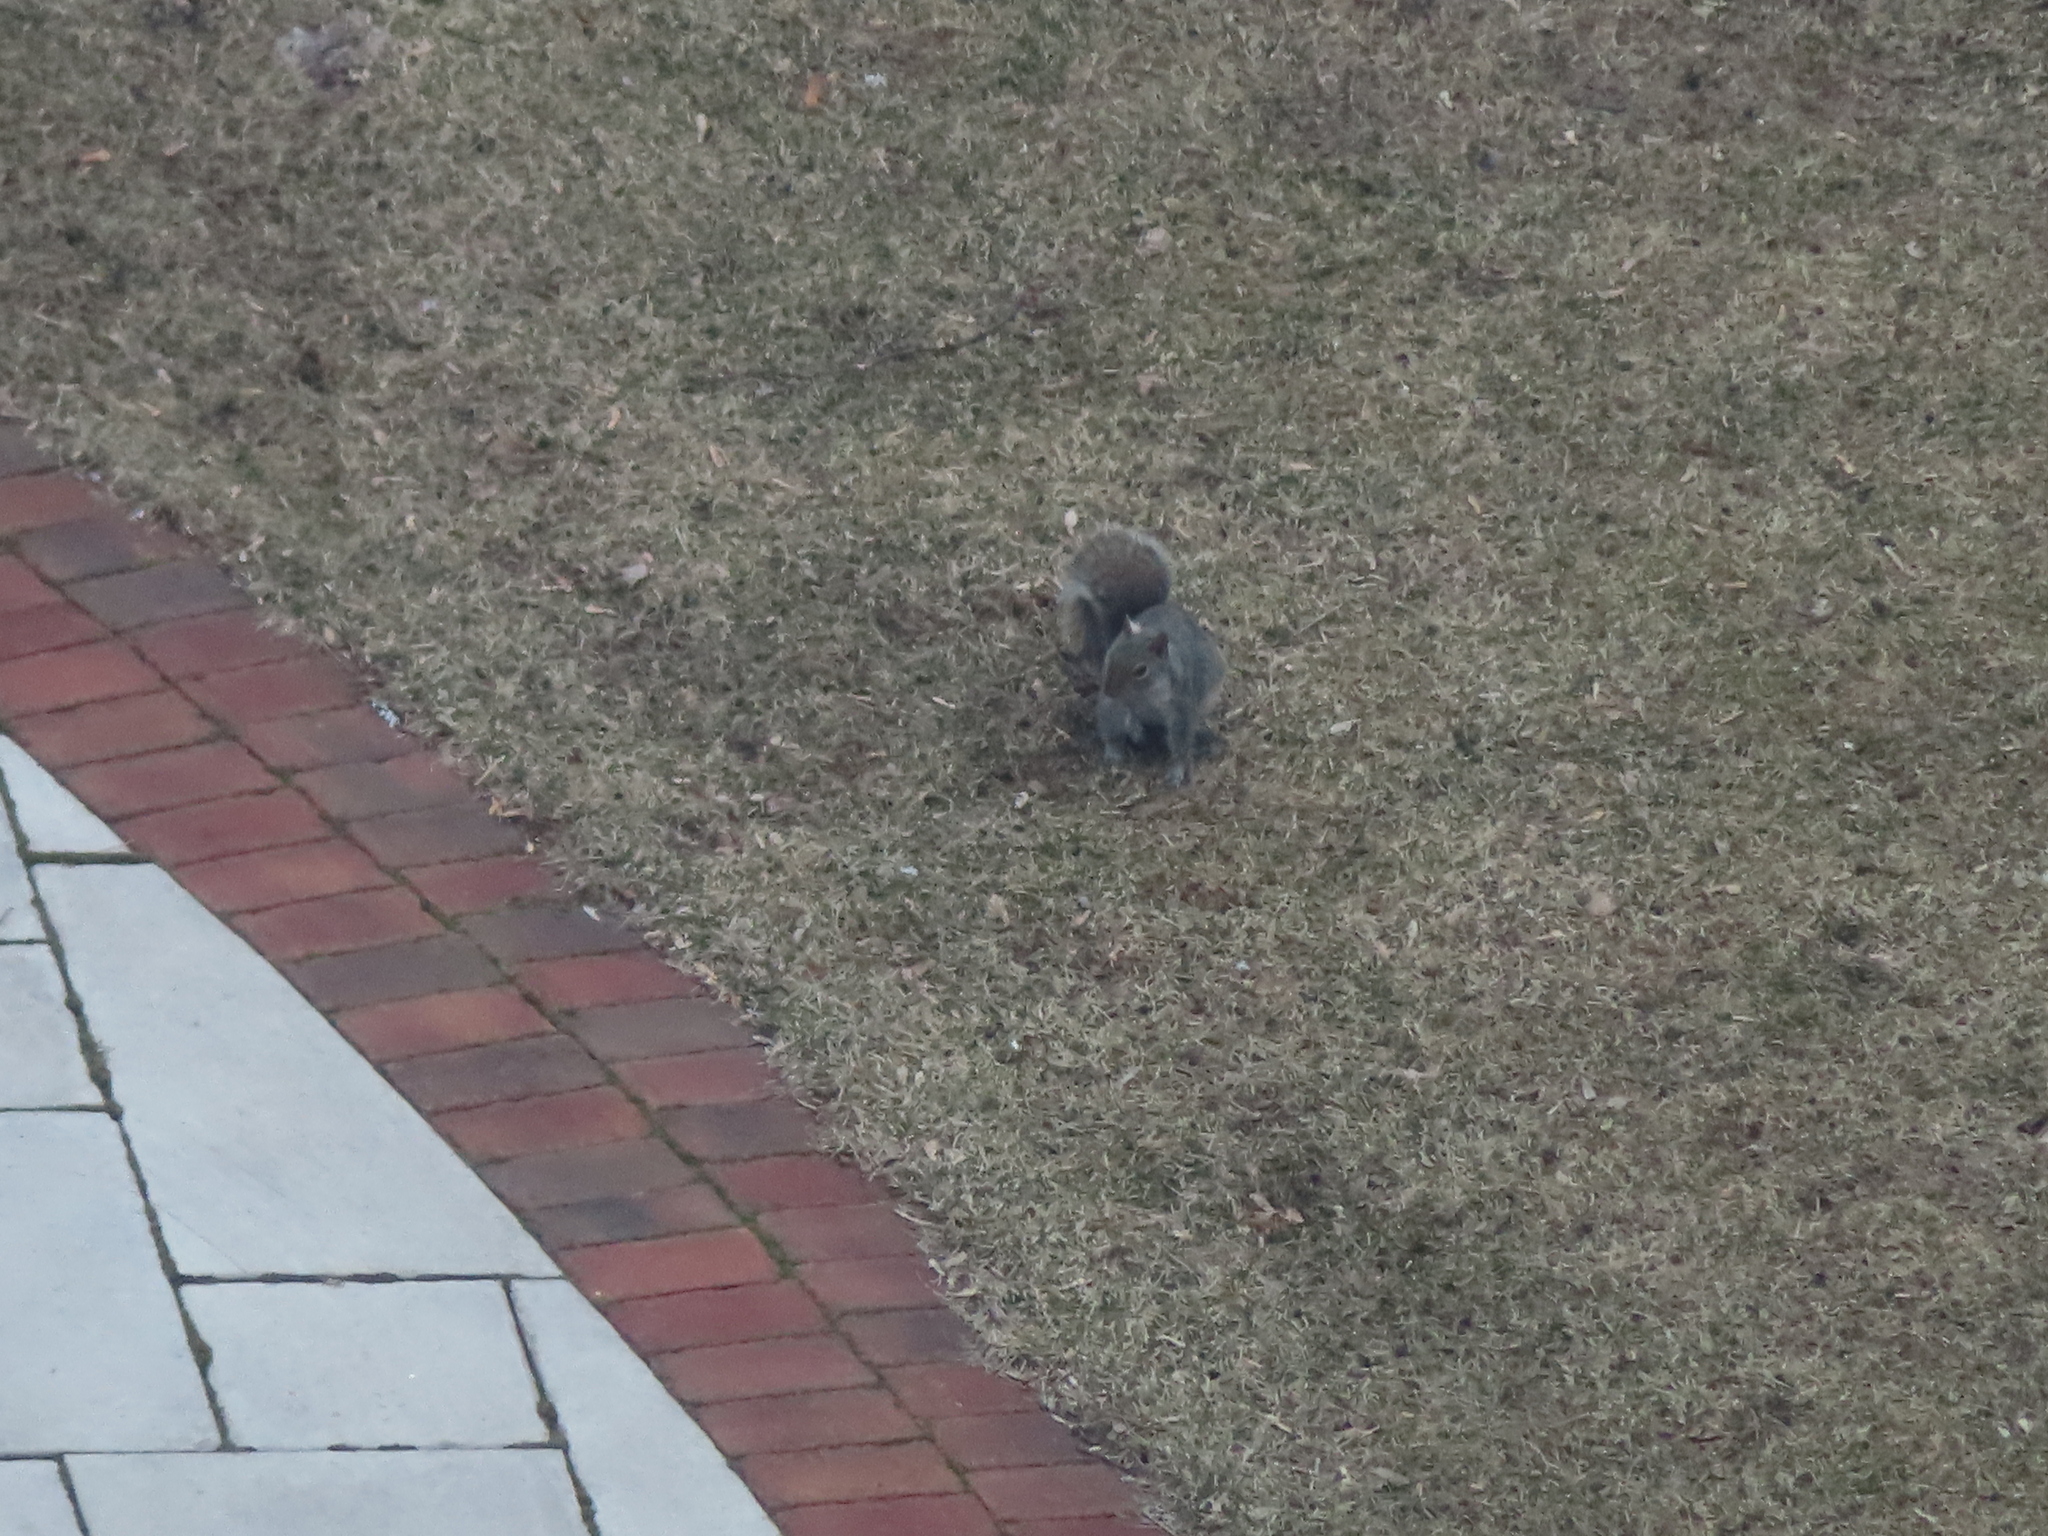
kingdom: Animalia
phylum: Chordata
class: Mammalia
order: Rodentia
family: Sciuridae
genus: Sciurus
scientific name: Sciurus carolinensis
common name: Eastern gray squirrel
